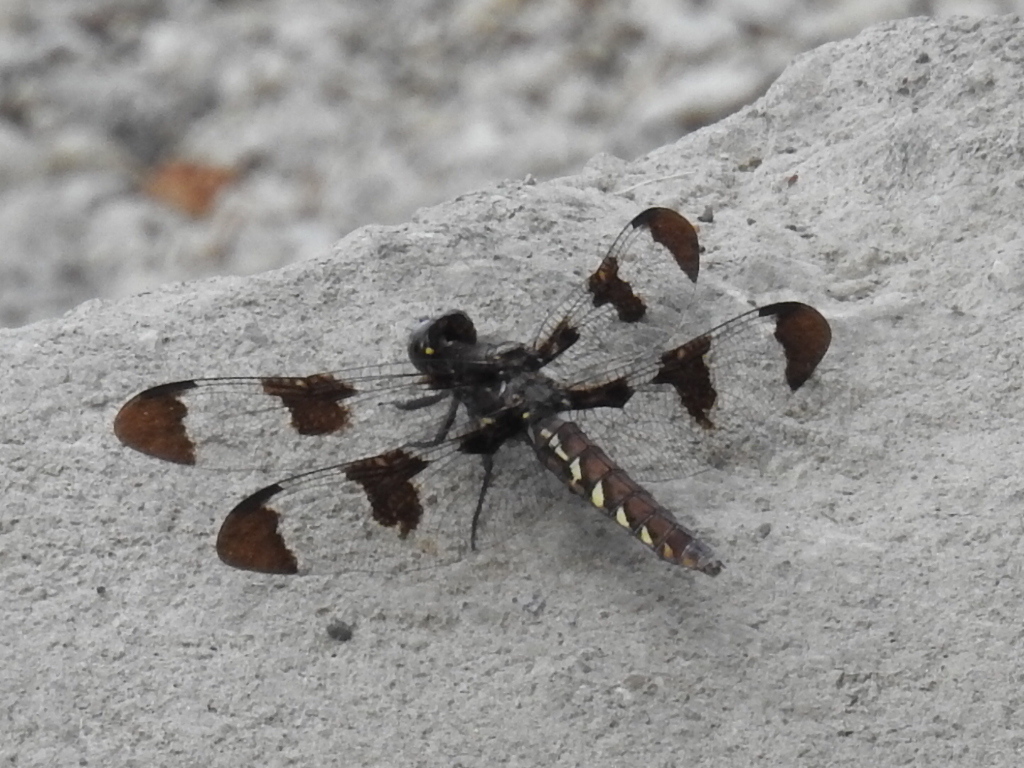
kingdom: Animalia
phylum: Arthropoda
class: Insecta
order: Odonata
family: Libellulidae
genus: Plathemis
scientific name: Plathemis lydia
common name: Common whitetail
